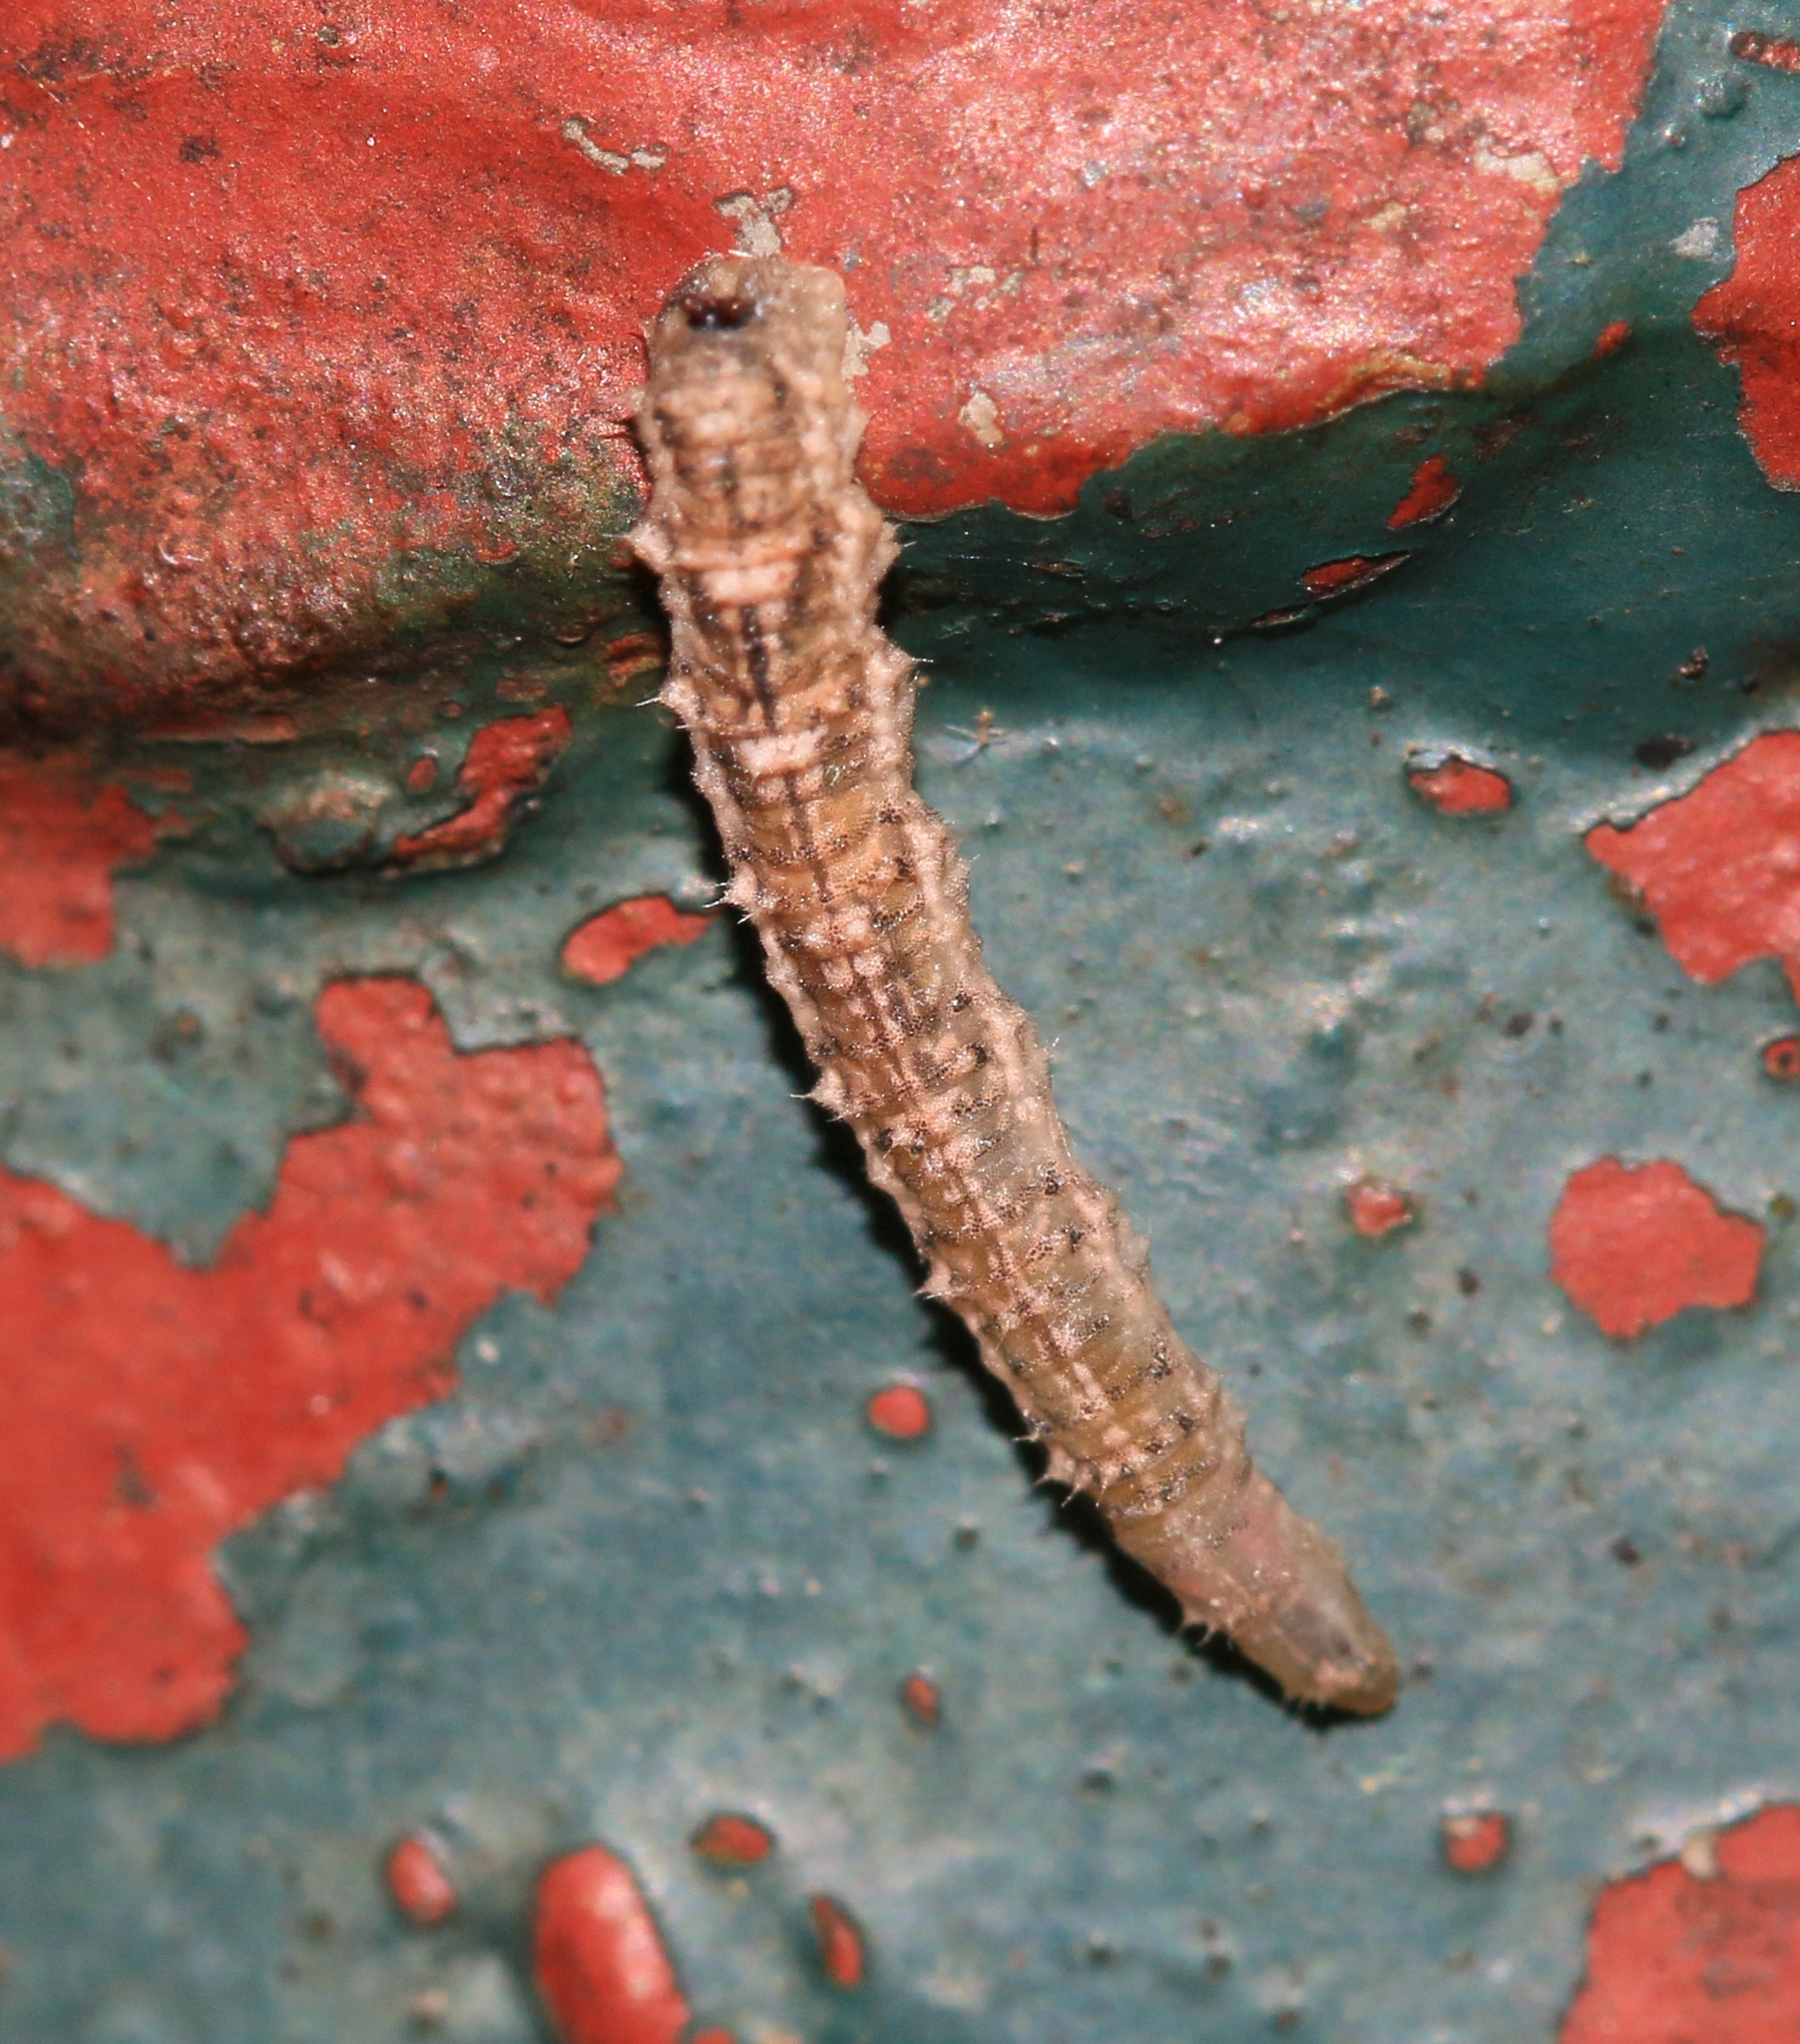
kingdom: Animalia
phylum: Arthropoda
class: Insecta
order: Diptera
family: Syrphidae
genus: Eupeodes
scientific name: Eupeodes
